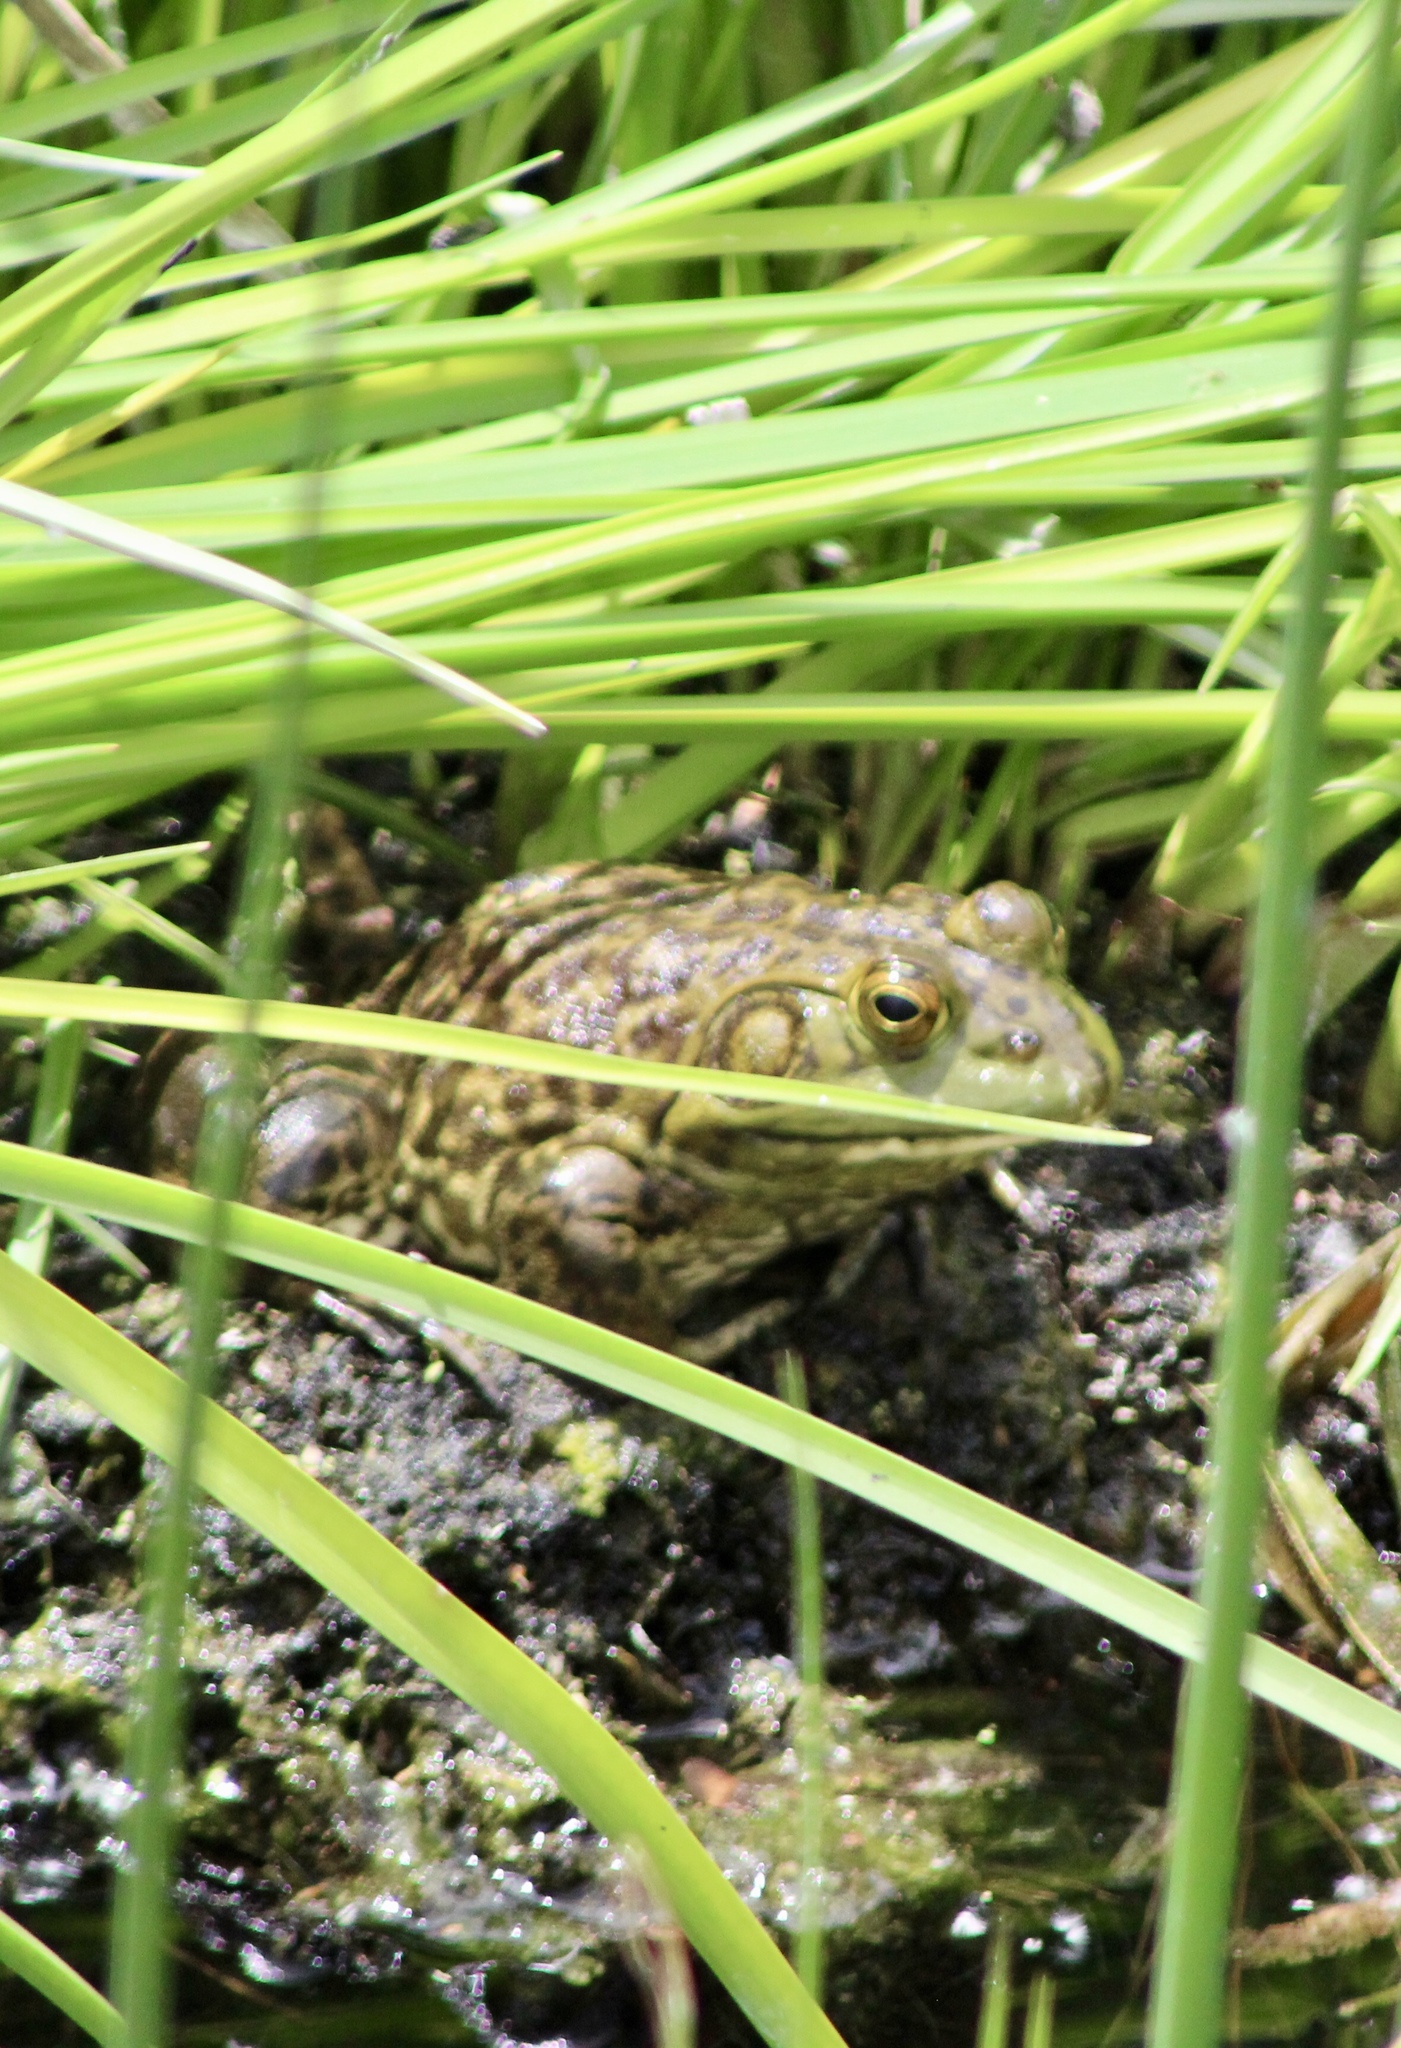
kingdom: Animalia
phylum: Chordata
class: Amphibia
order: Anura
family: Ranidae
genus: Lithobates
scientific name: Lithobates catesbeianus
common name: American bullfrog
